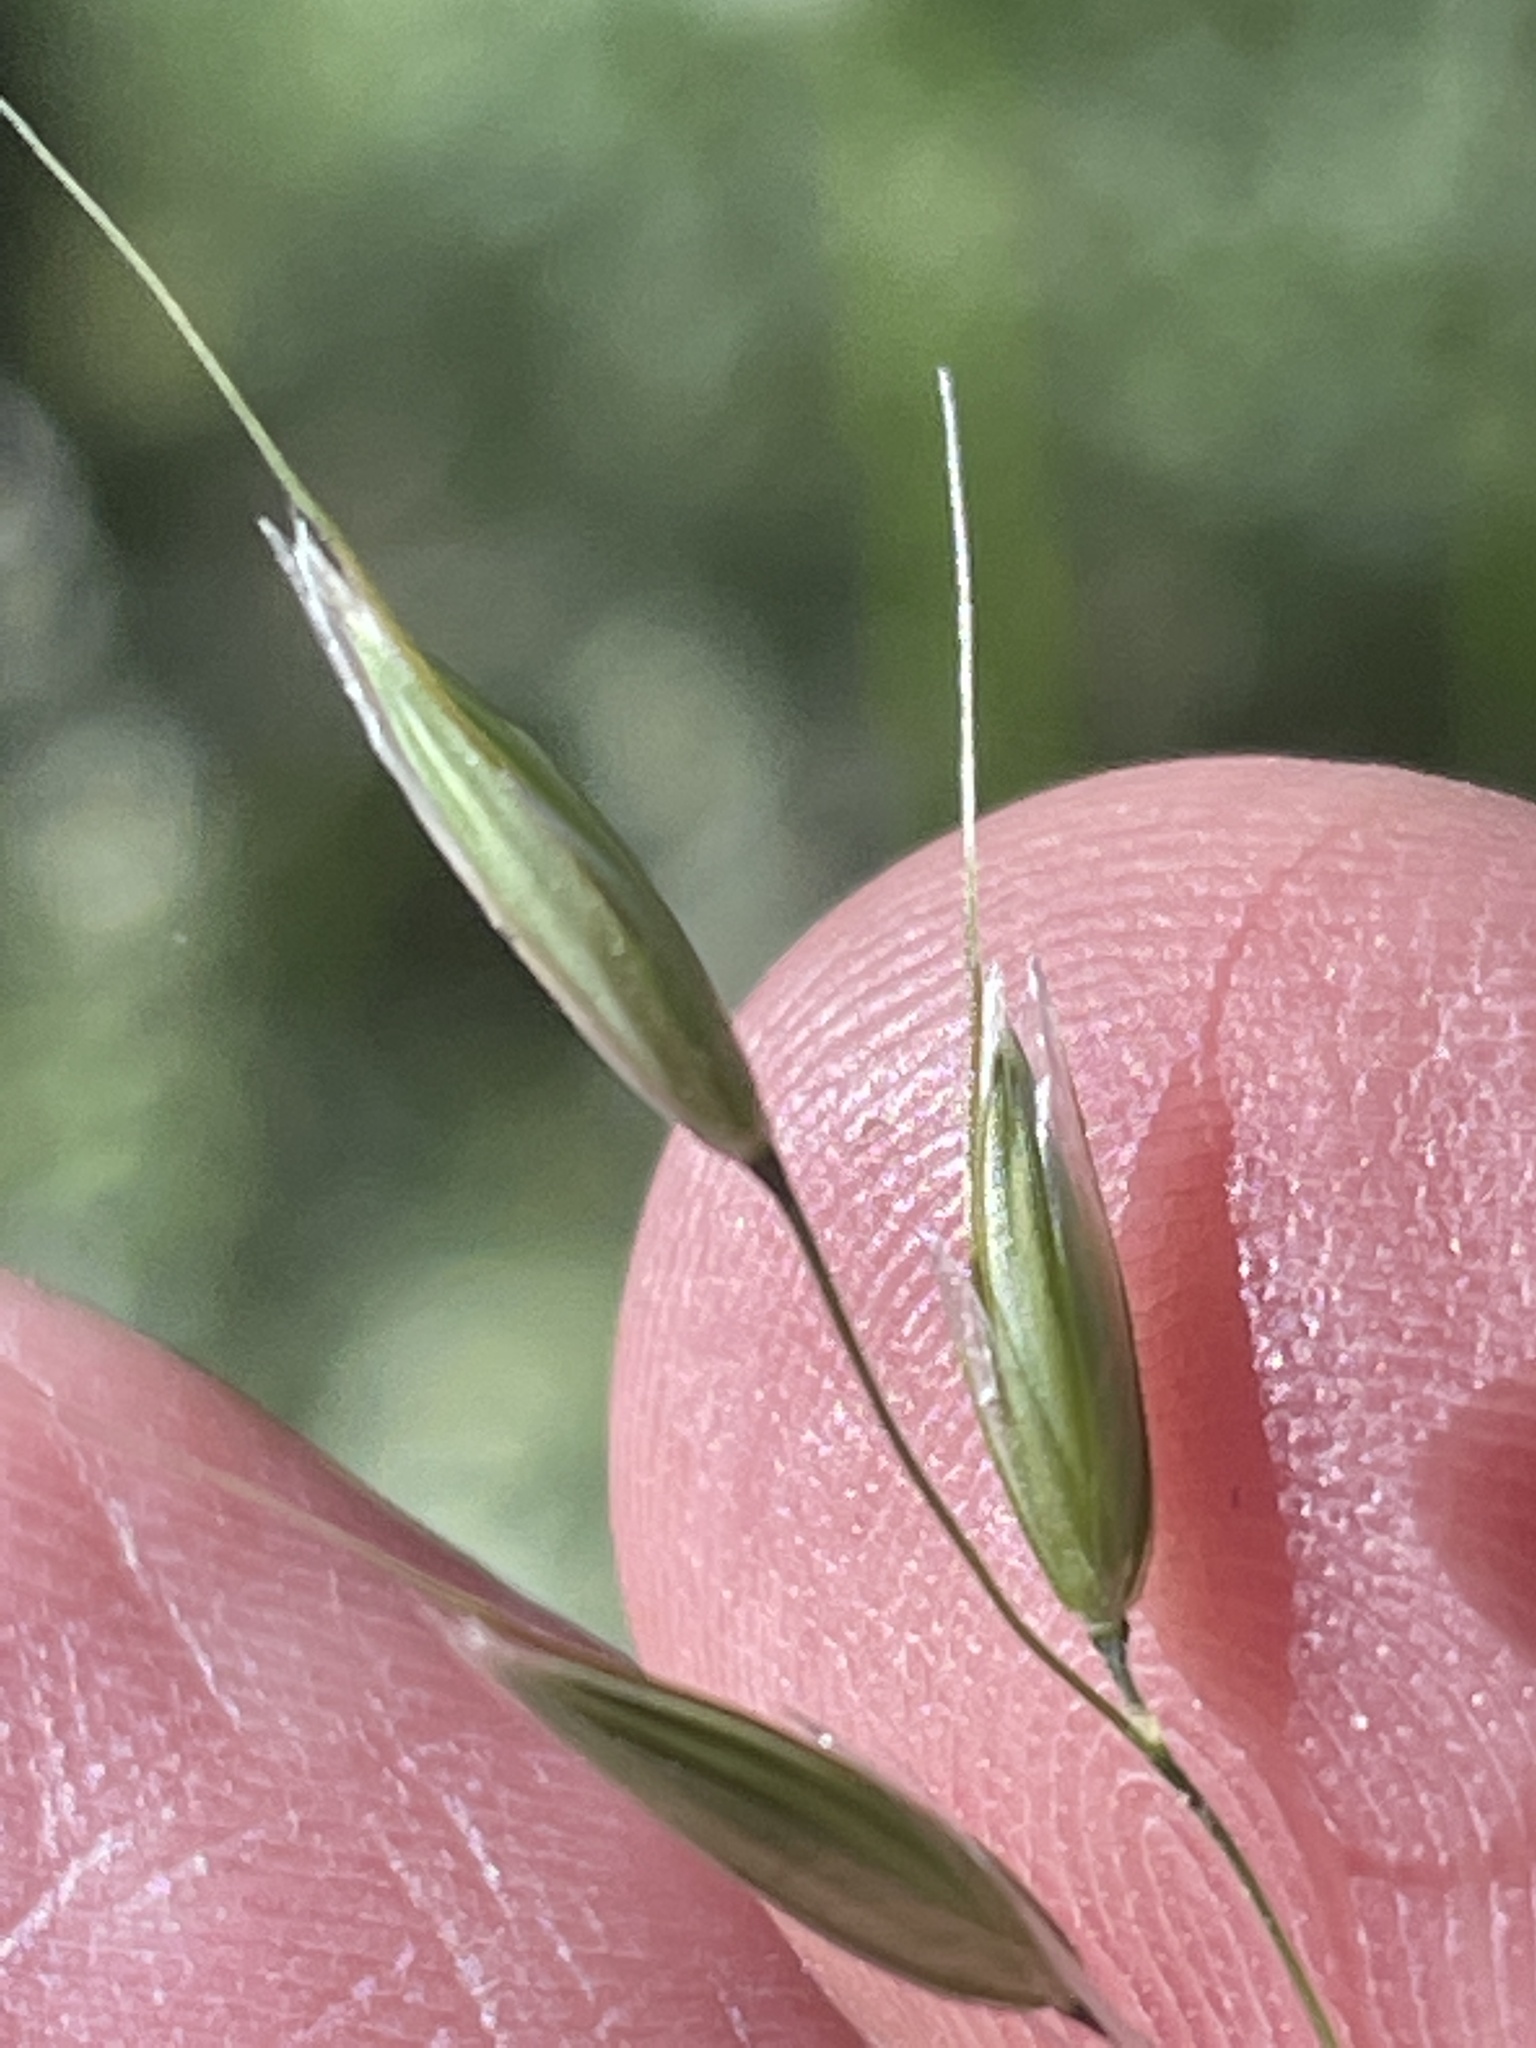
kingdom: Plantae
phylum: Tracheophyta
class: Liliopsida
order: Poales
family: Poaceae
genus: Arrhenatherum
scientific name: Arrhenatherum elatius
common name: Tall oatgrass
